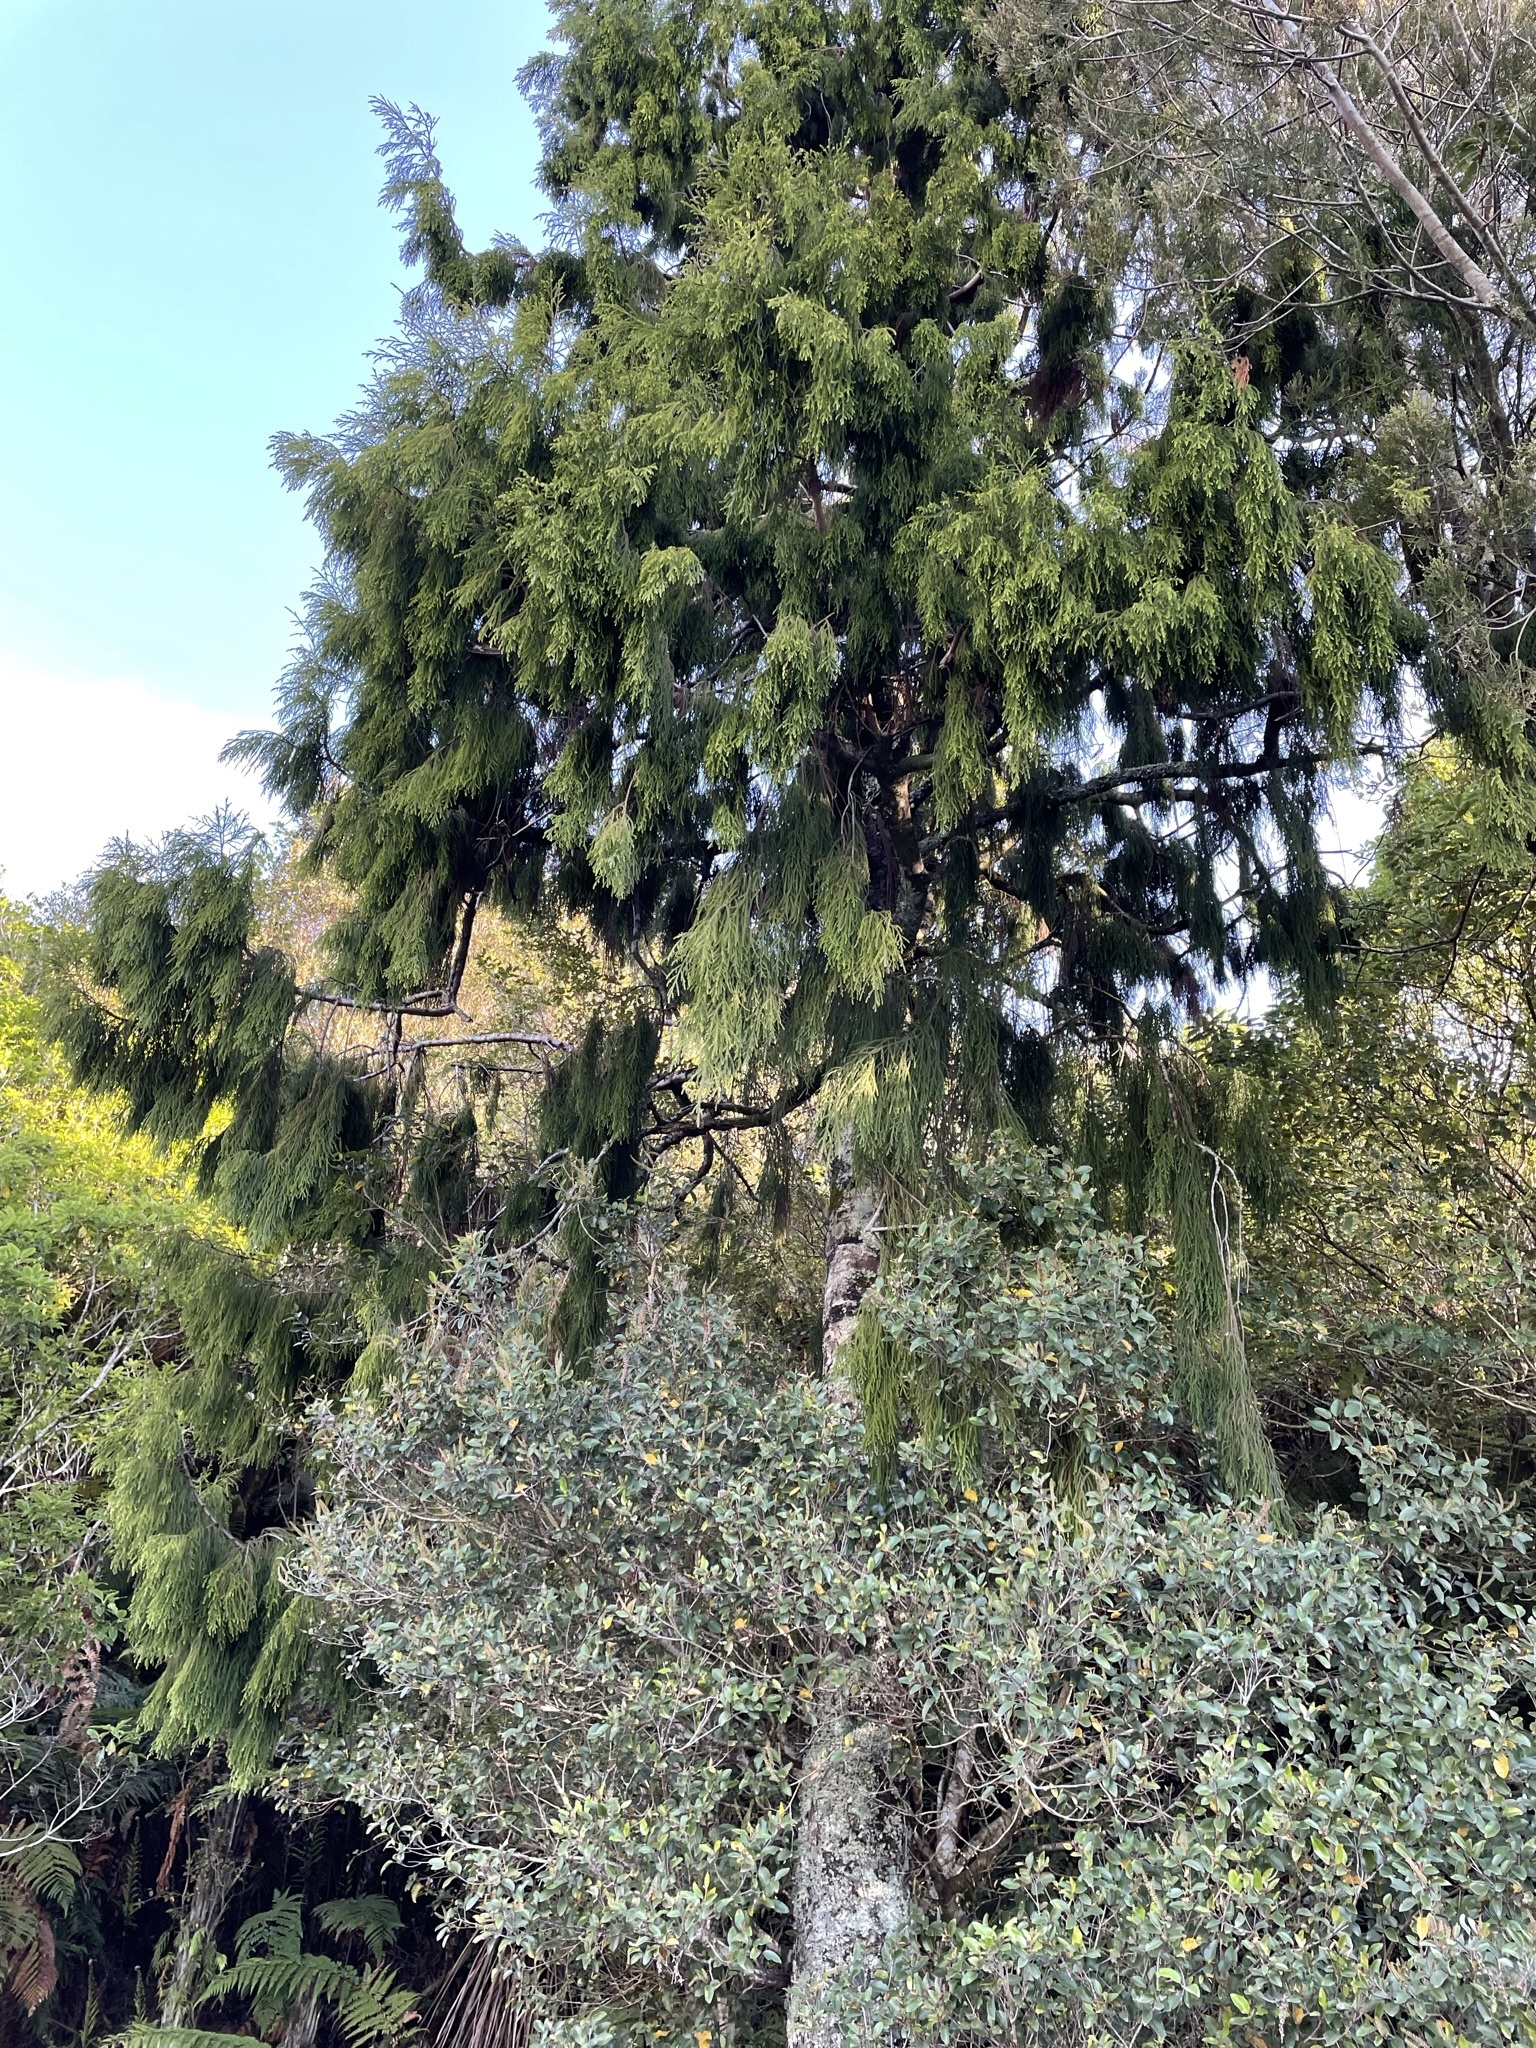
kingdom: Plantae
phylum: Tracheophyta
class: Pinopsida
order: Pinales
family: Podocarpaceae
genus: Dacrydium
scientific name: Dacrydium cupressinum
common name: Red pine
